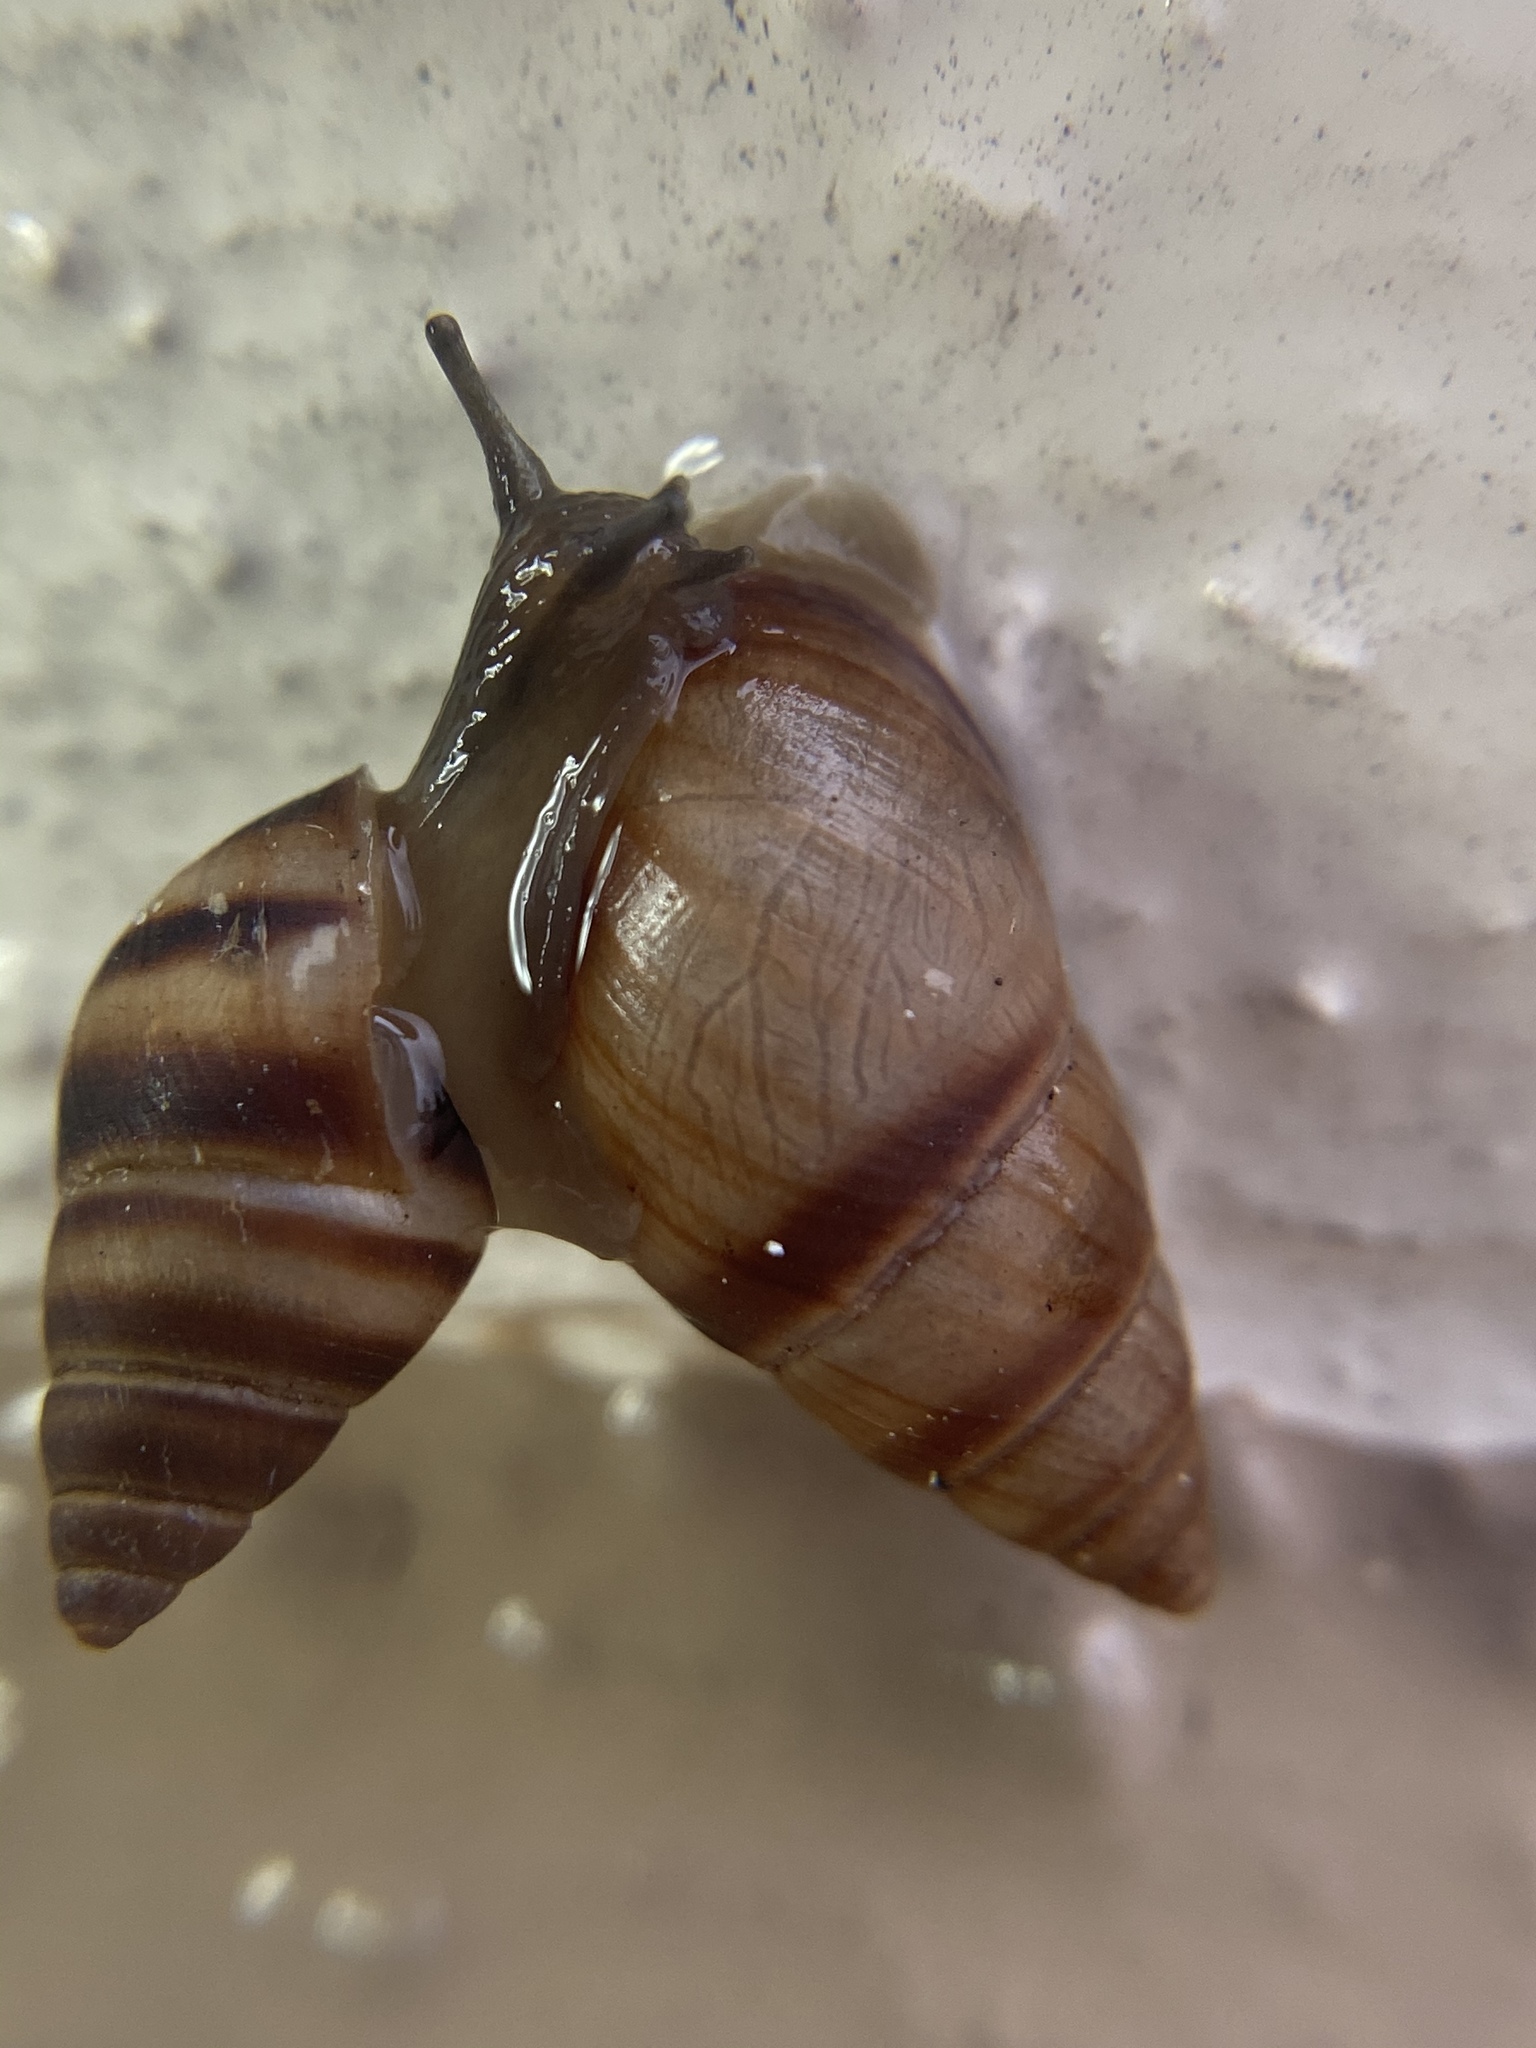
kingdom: Animalia
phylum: Mollusca
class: Gastropoda
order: Stylommatophora
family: Bulimulidae
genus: Bulimulus
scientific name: Bulimulus guadalupensis
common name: West indian bulimulus
